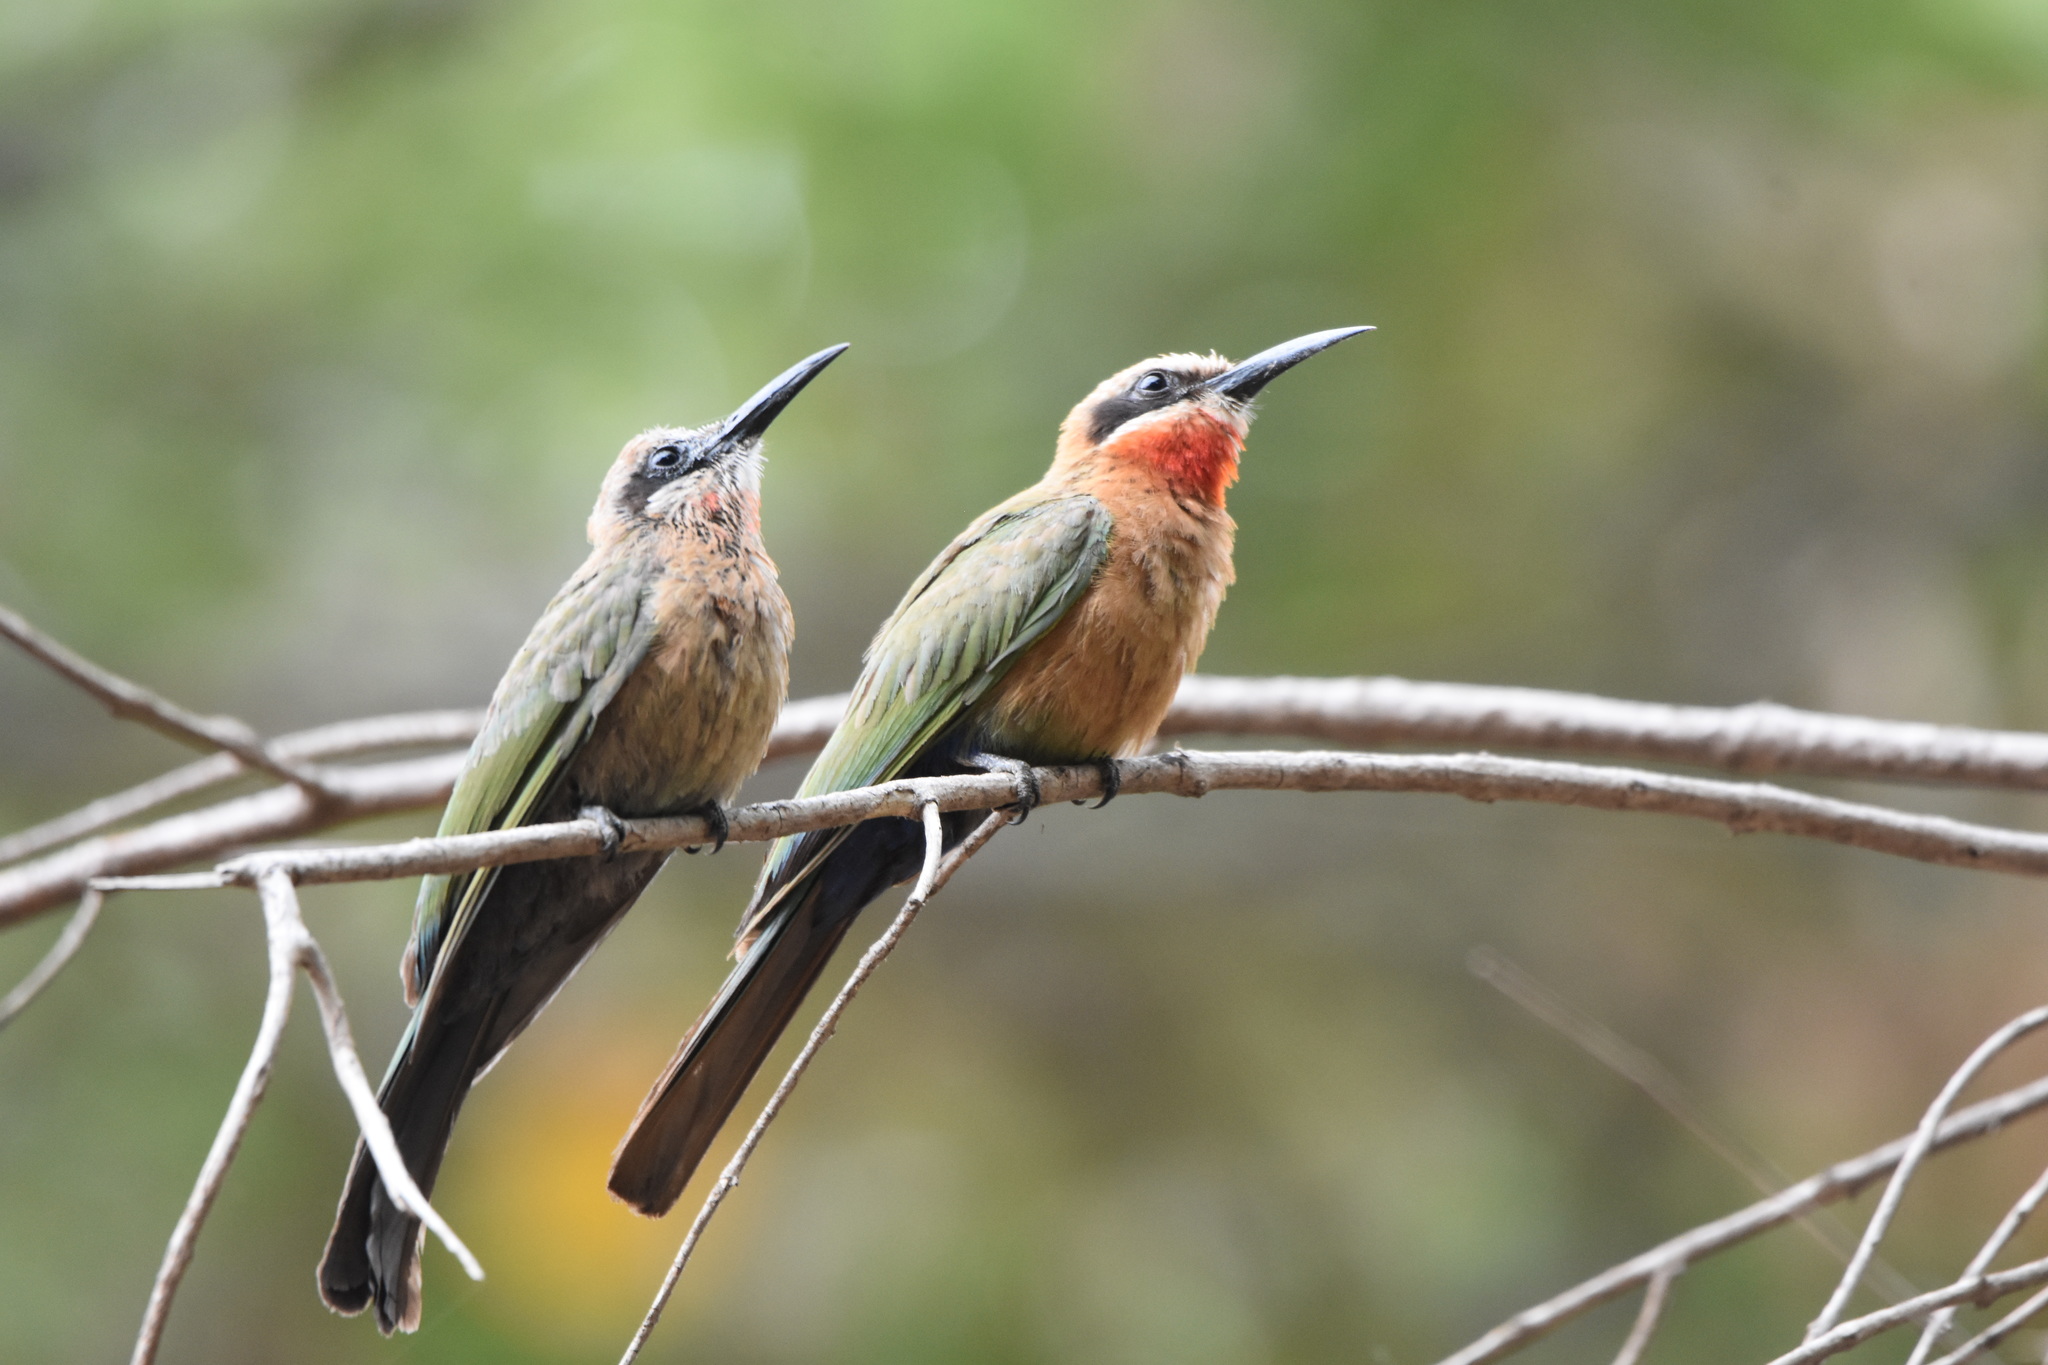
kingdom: Animalia
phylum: Chordata
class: Aves
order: Coraciiformes
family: Meropidae
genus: Merops
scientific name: Merops bullockoides
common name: White-fronted bee-eater
